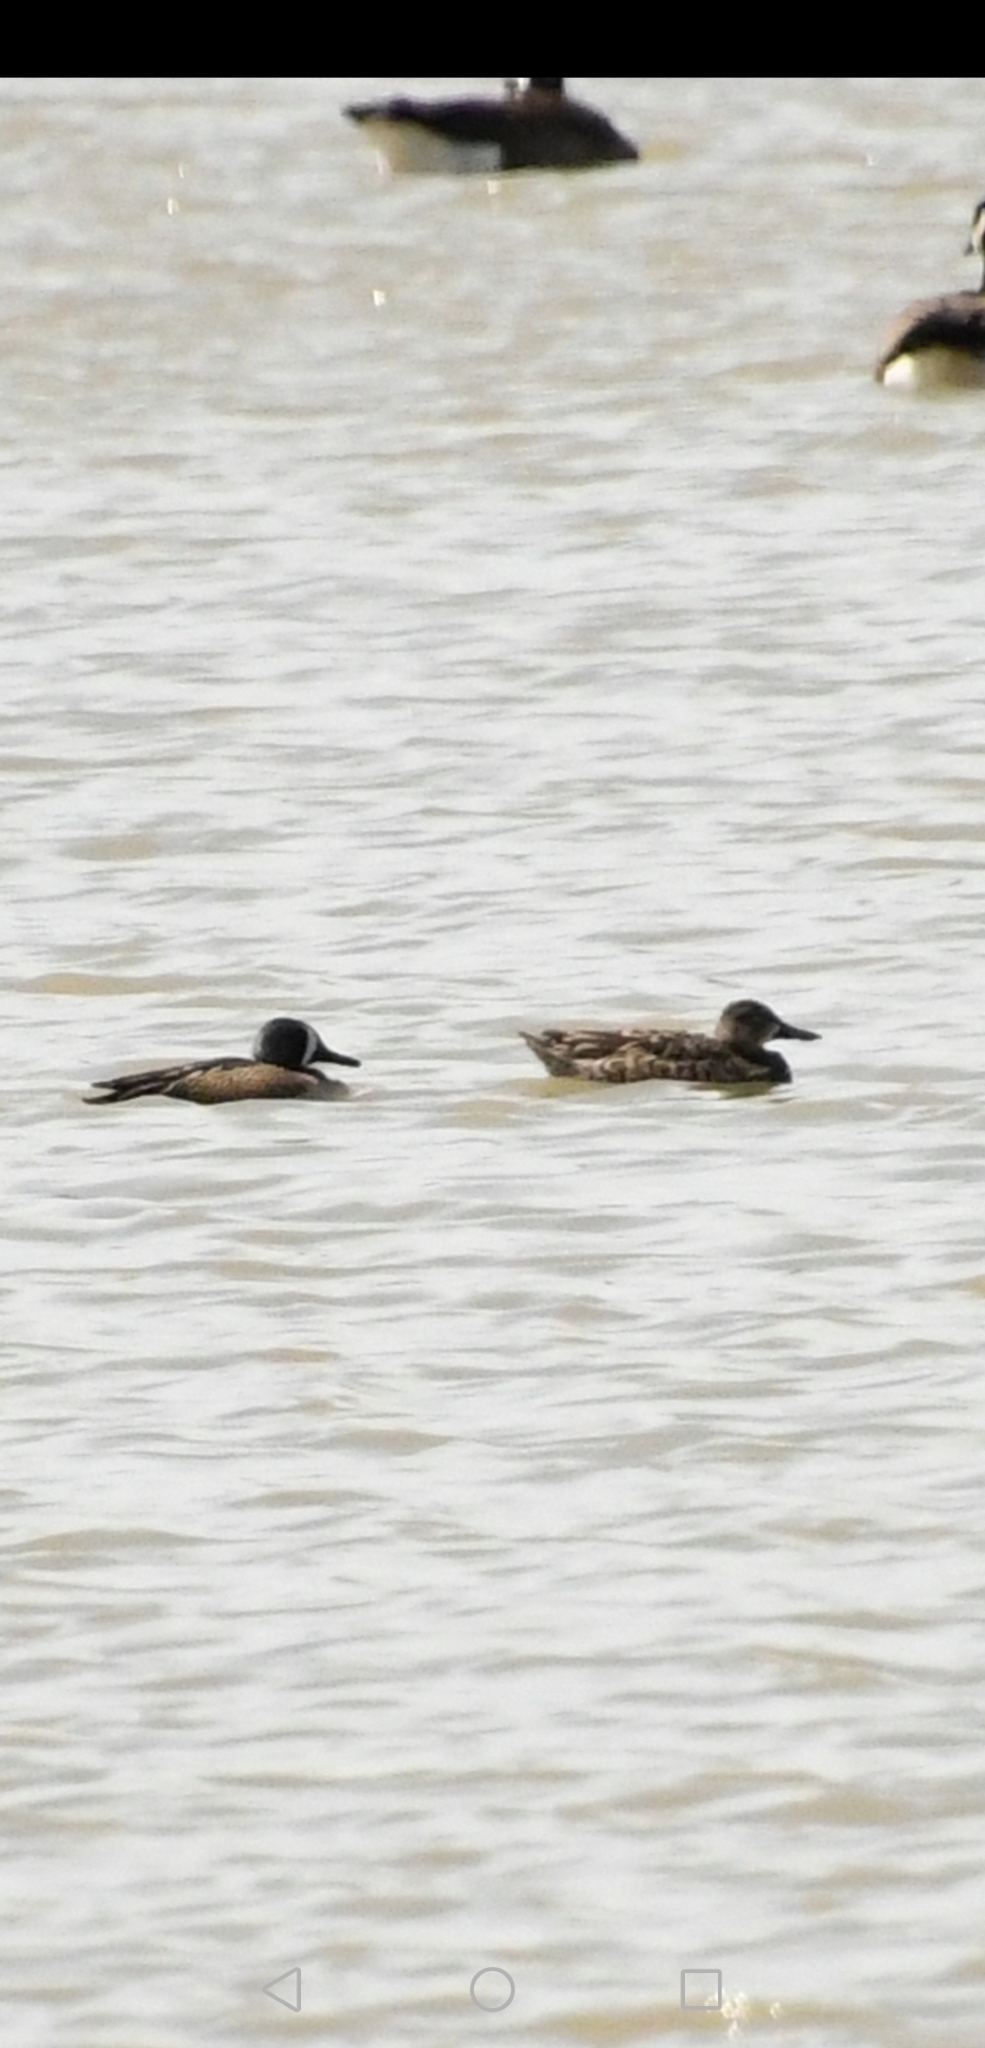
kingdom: Animalia
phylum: Chordata
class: Aves
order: Anseriformes
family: Anatidae
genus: Spatula
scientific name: Spatula discors
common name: Blue-winged teal
